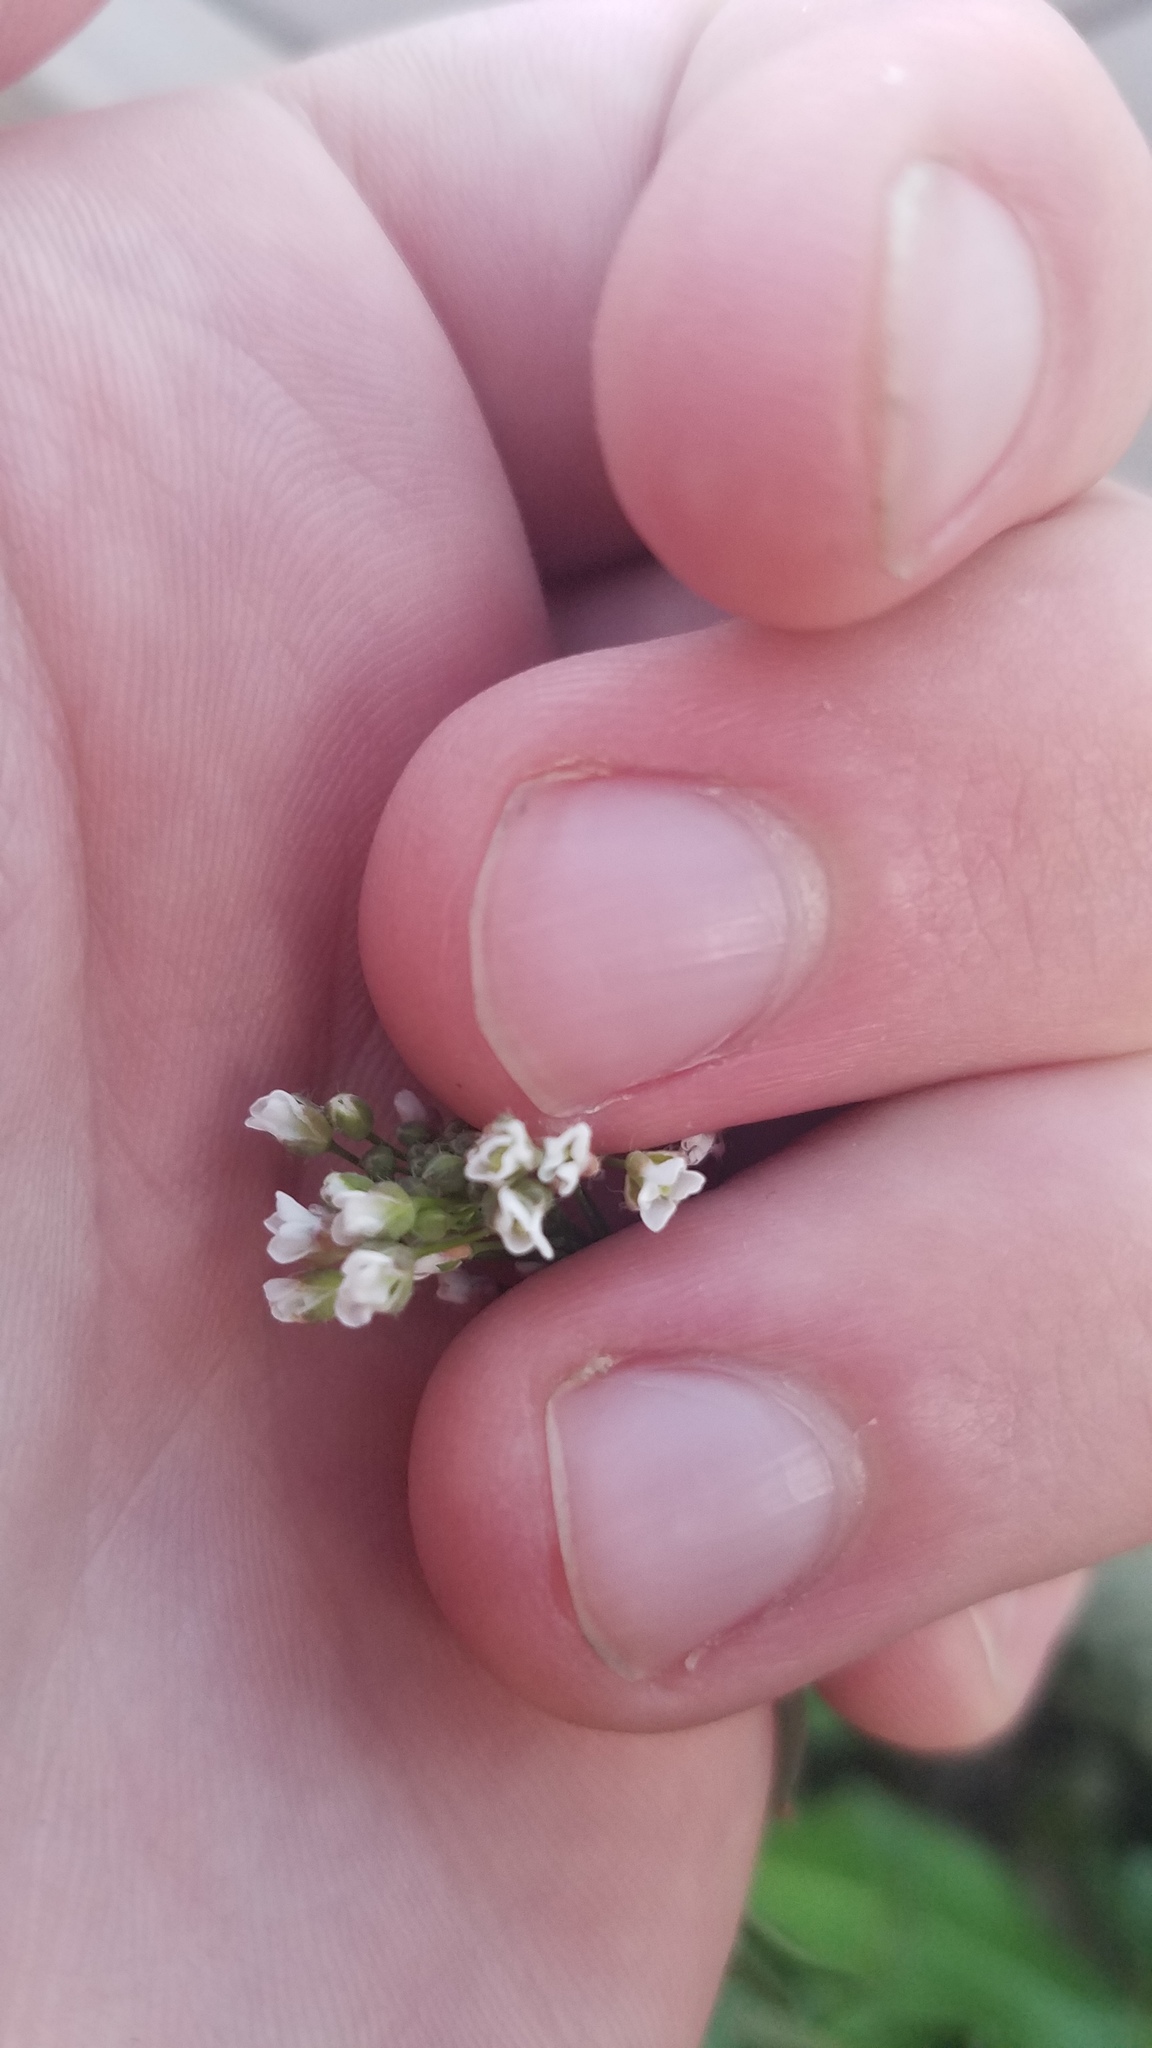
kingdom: Plantae
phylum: Tracheophyta
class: Magnoliopsida
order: Brassicales
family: Brassicaceae
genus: Capsella
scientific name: Capsella bursa-pastoris
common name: Shepherd's purse
